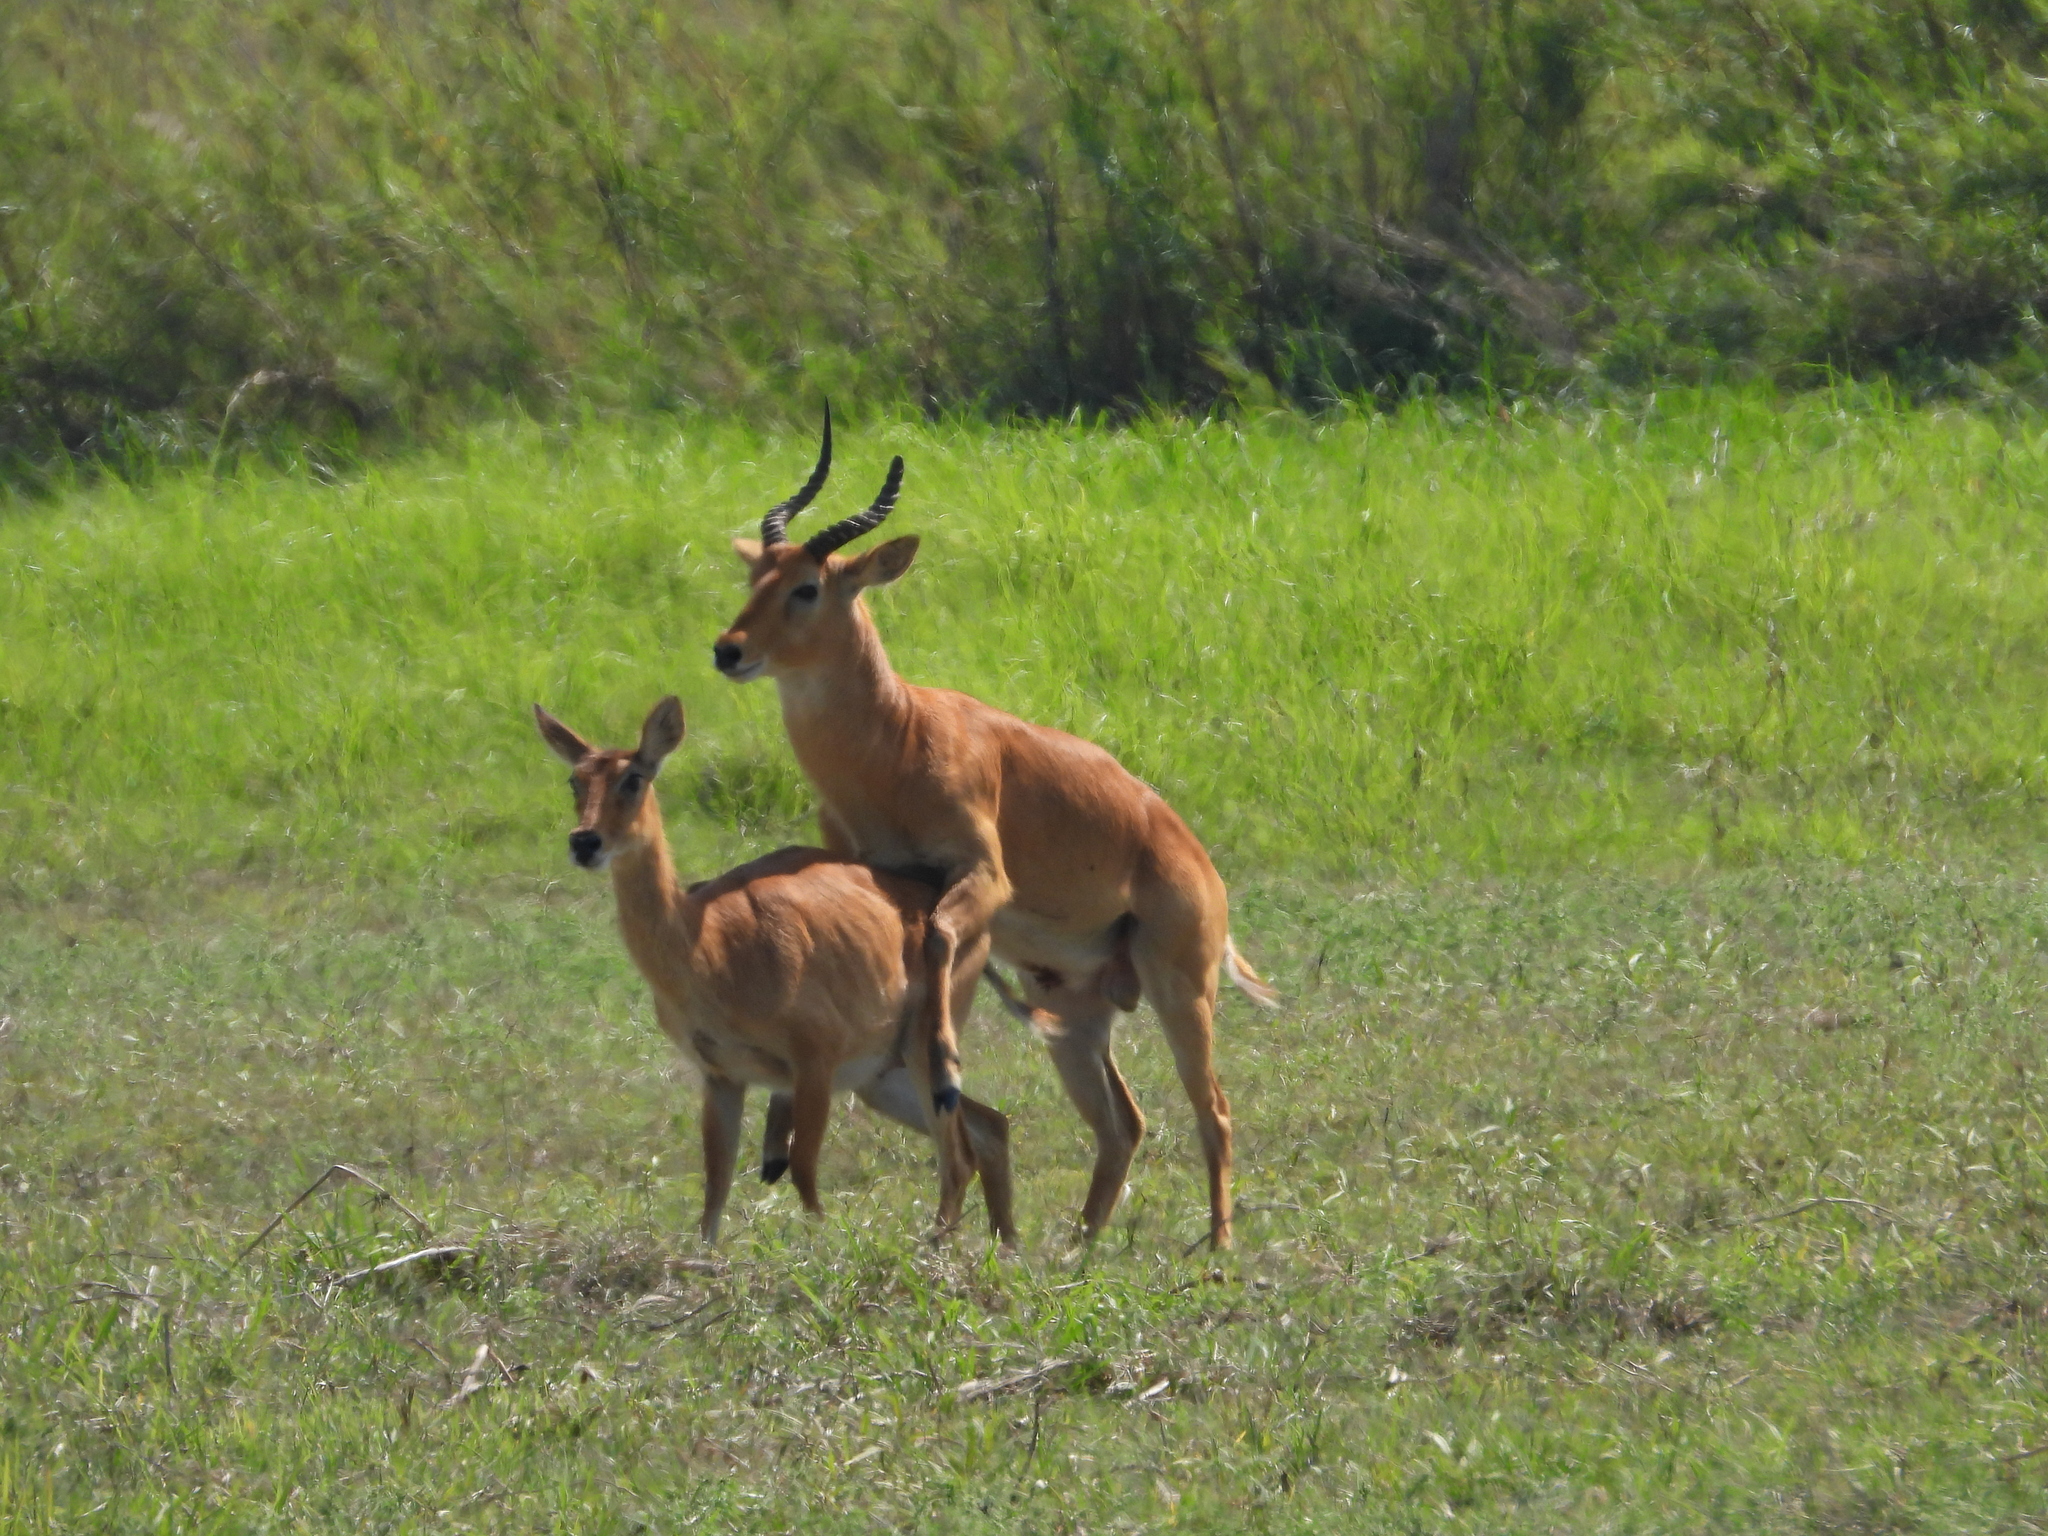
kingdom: Animalia
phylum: Chordata
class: Mammalia
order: Artiodactyla
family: Bovidae
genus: Kobus
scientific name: Kobus vardonii
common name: Puku
